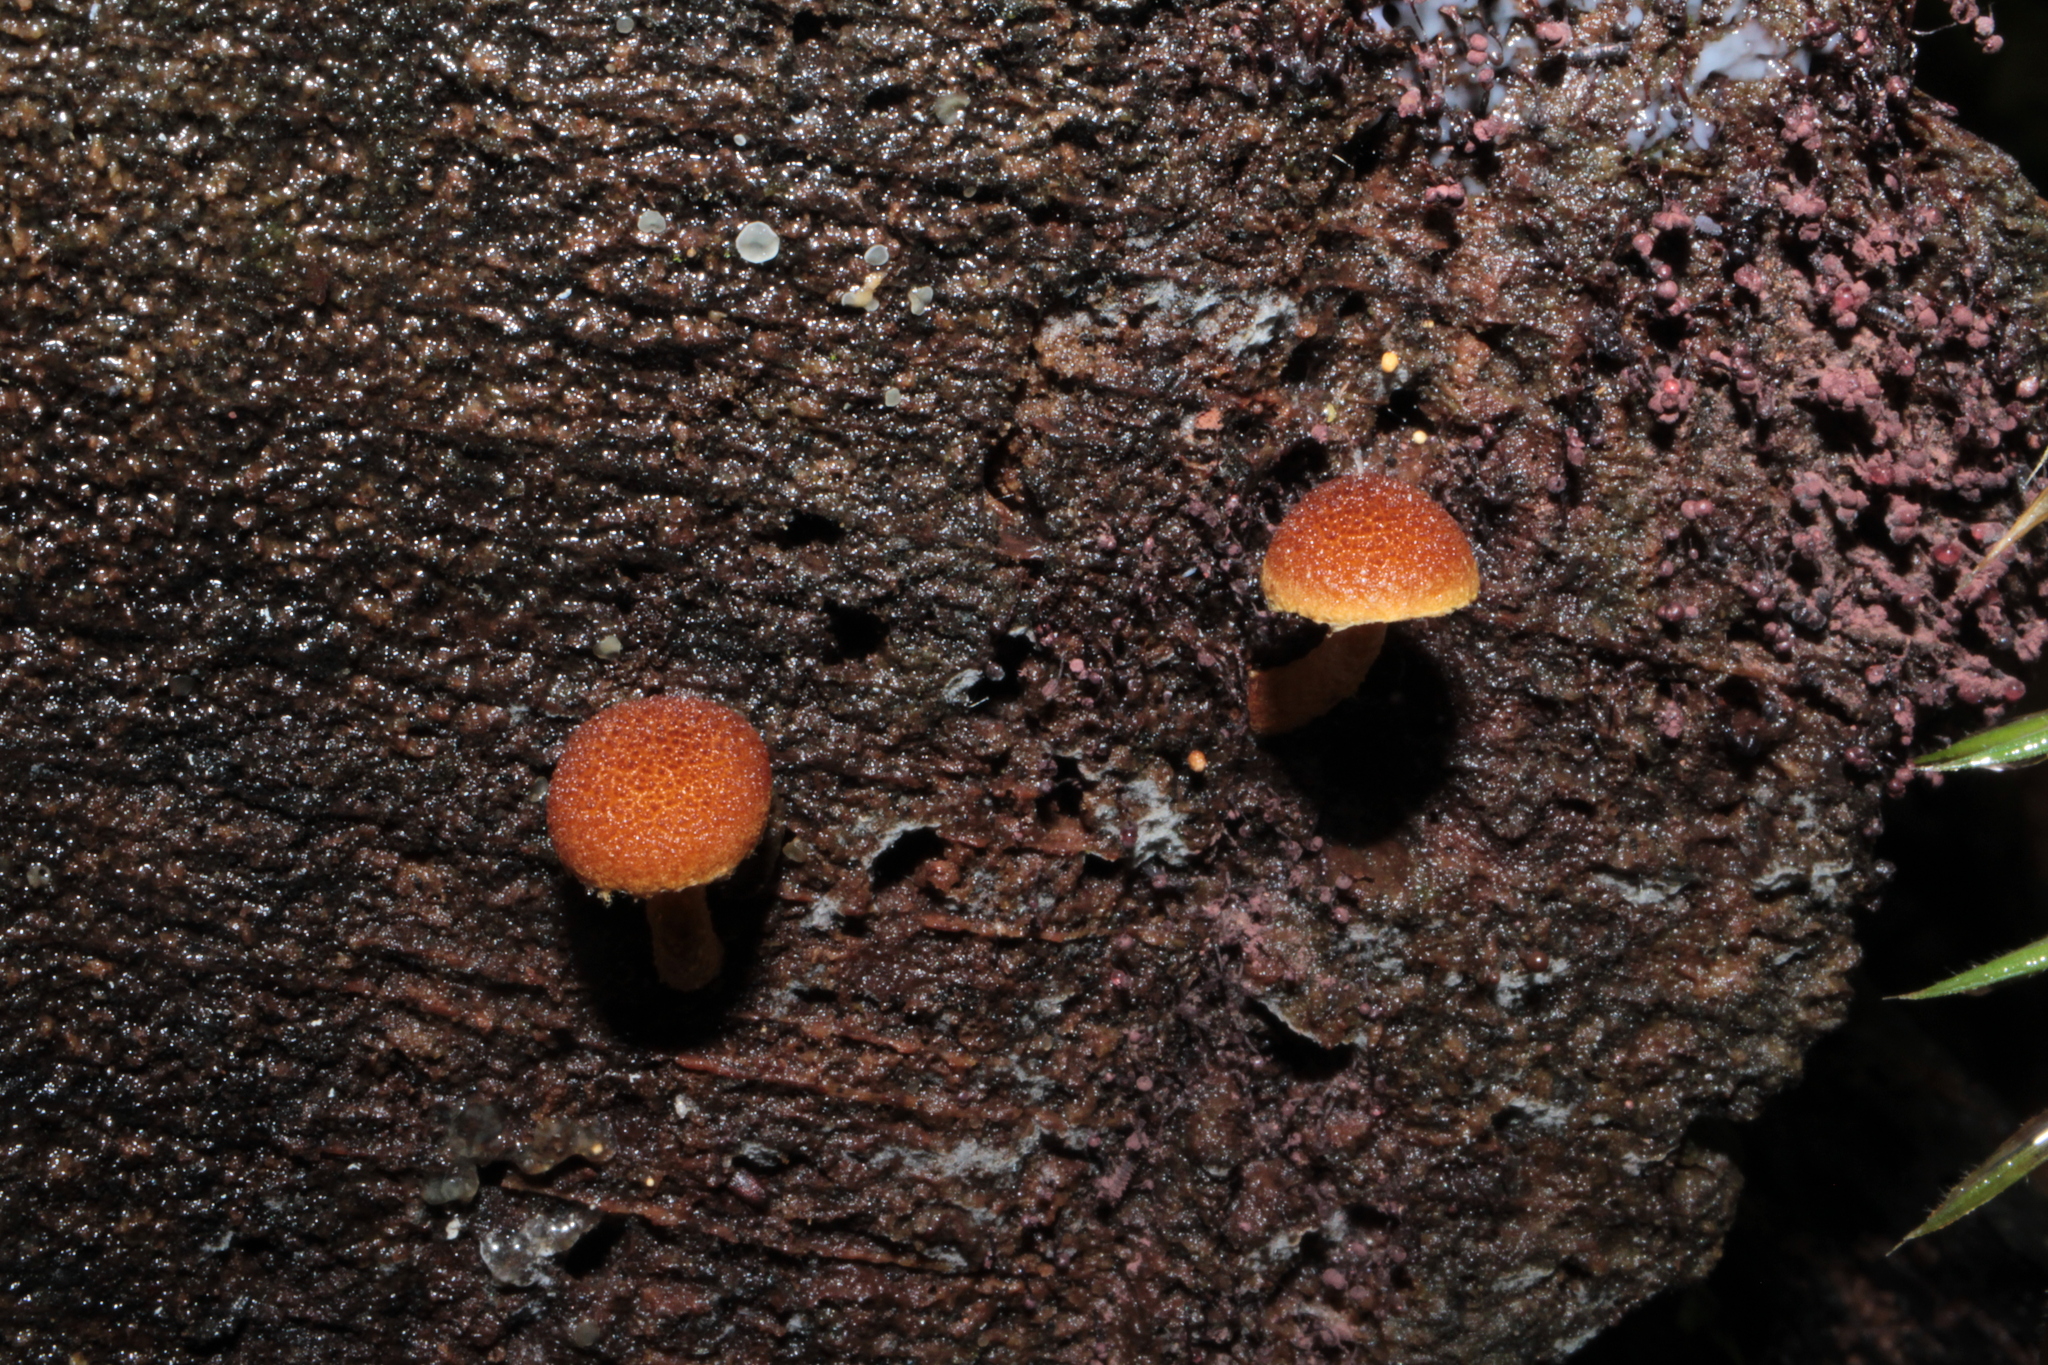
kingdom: Fungi
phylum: Basidiomycota
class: Agaricomycetes
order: Agaricales
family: Tubariaceae
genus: Phaeomarasmius
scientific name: Phaeomarasmius proximans
